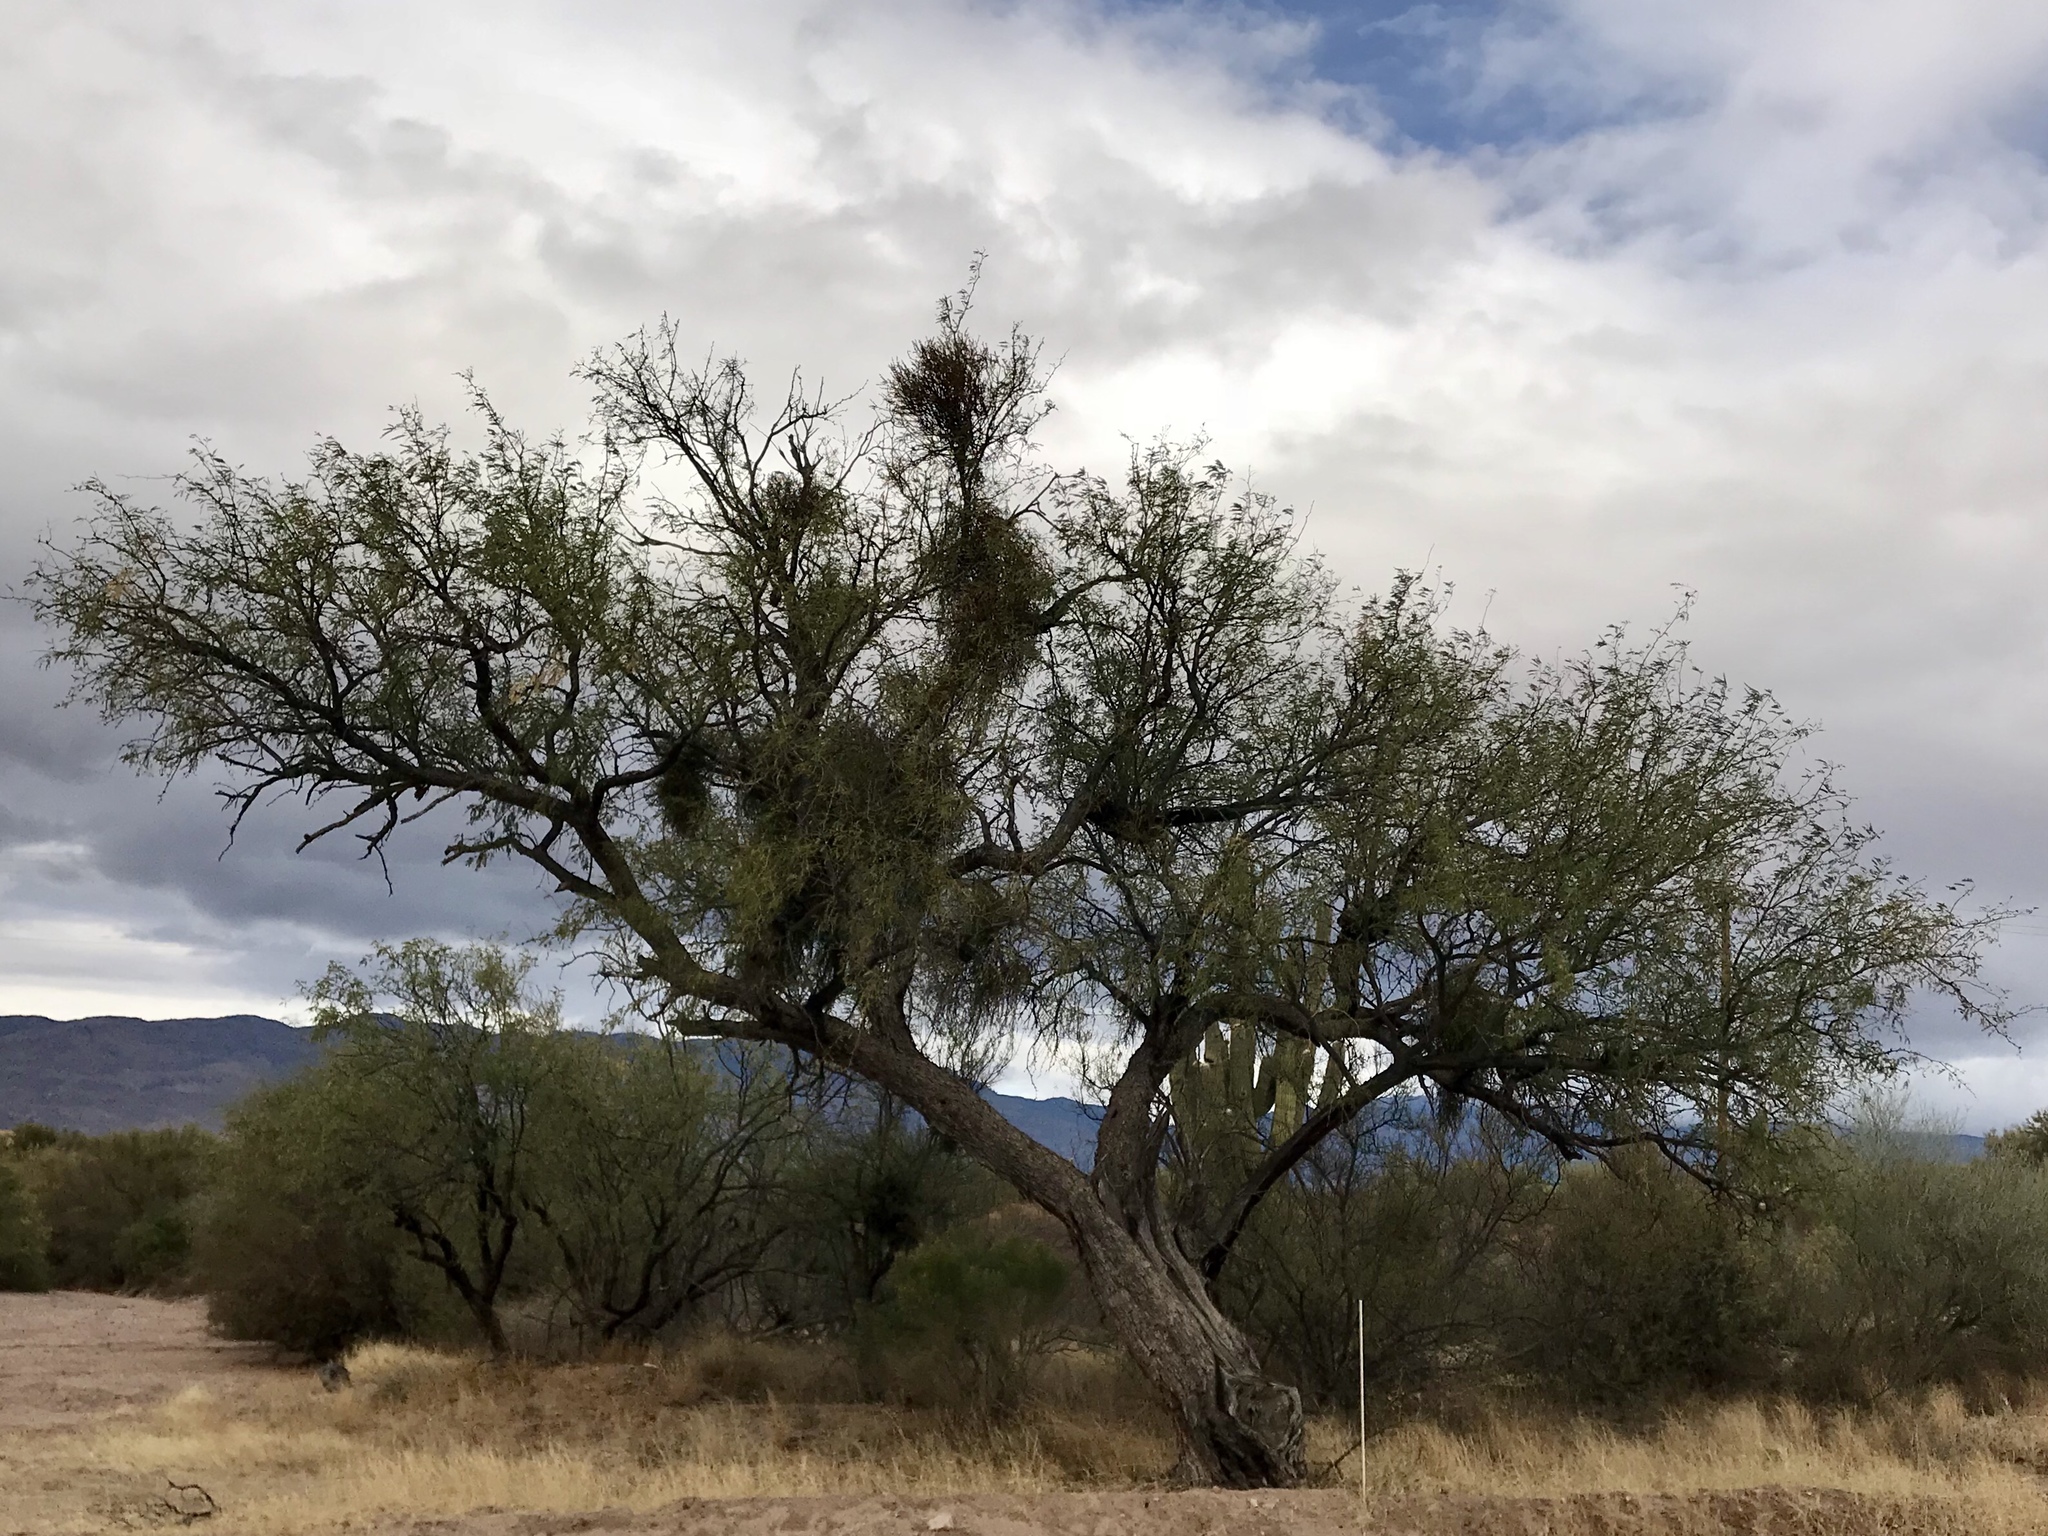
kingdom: Plantae
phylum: Tracheophyta
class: Magnoliopsida
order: Fabales
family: Fabaceae
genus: Prosopis
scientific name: Prosopis velutina
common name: Velvet mesquite
